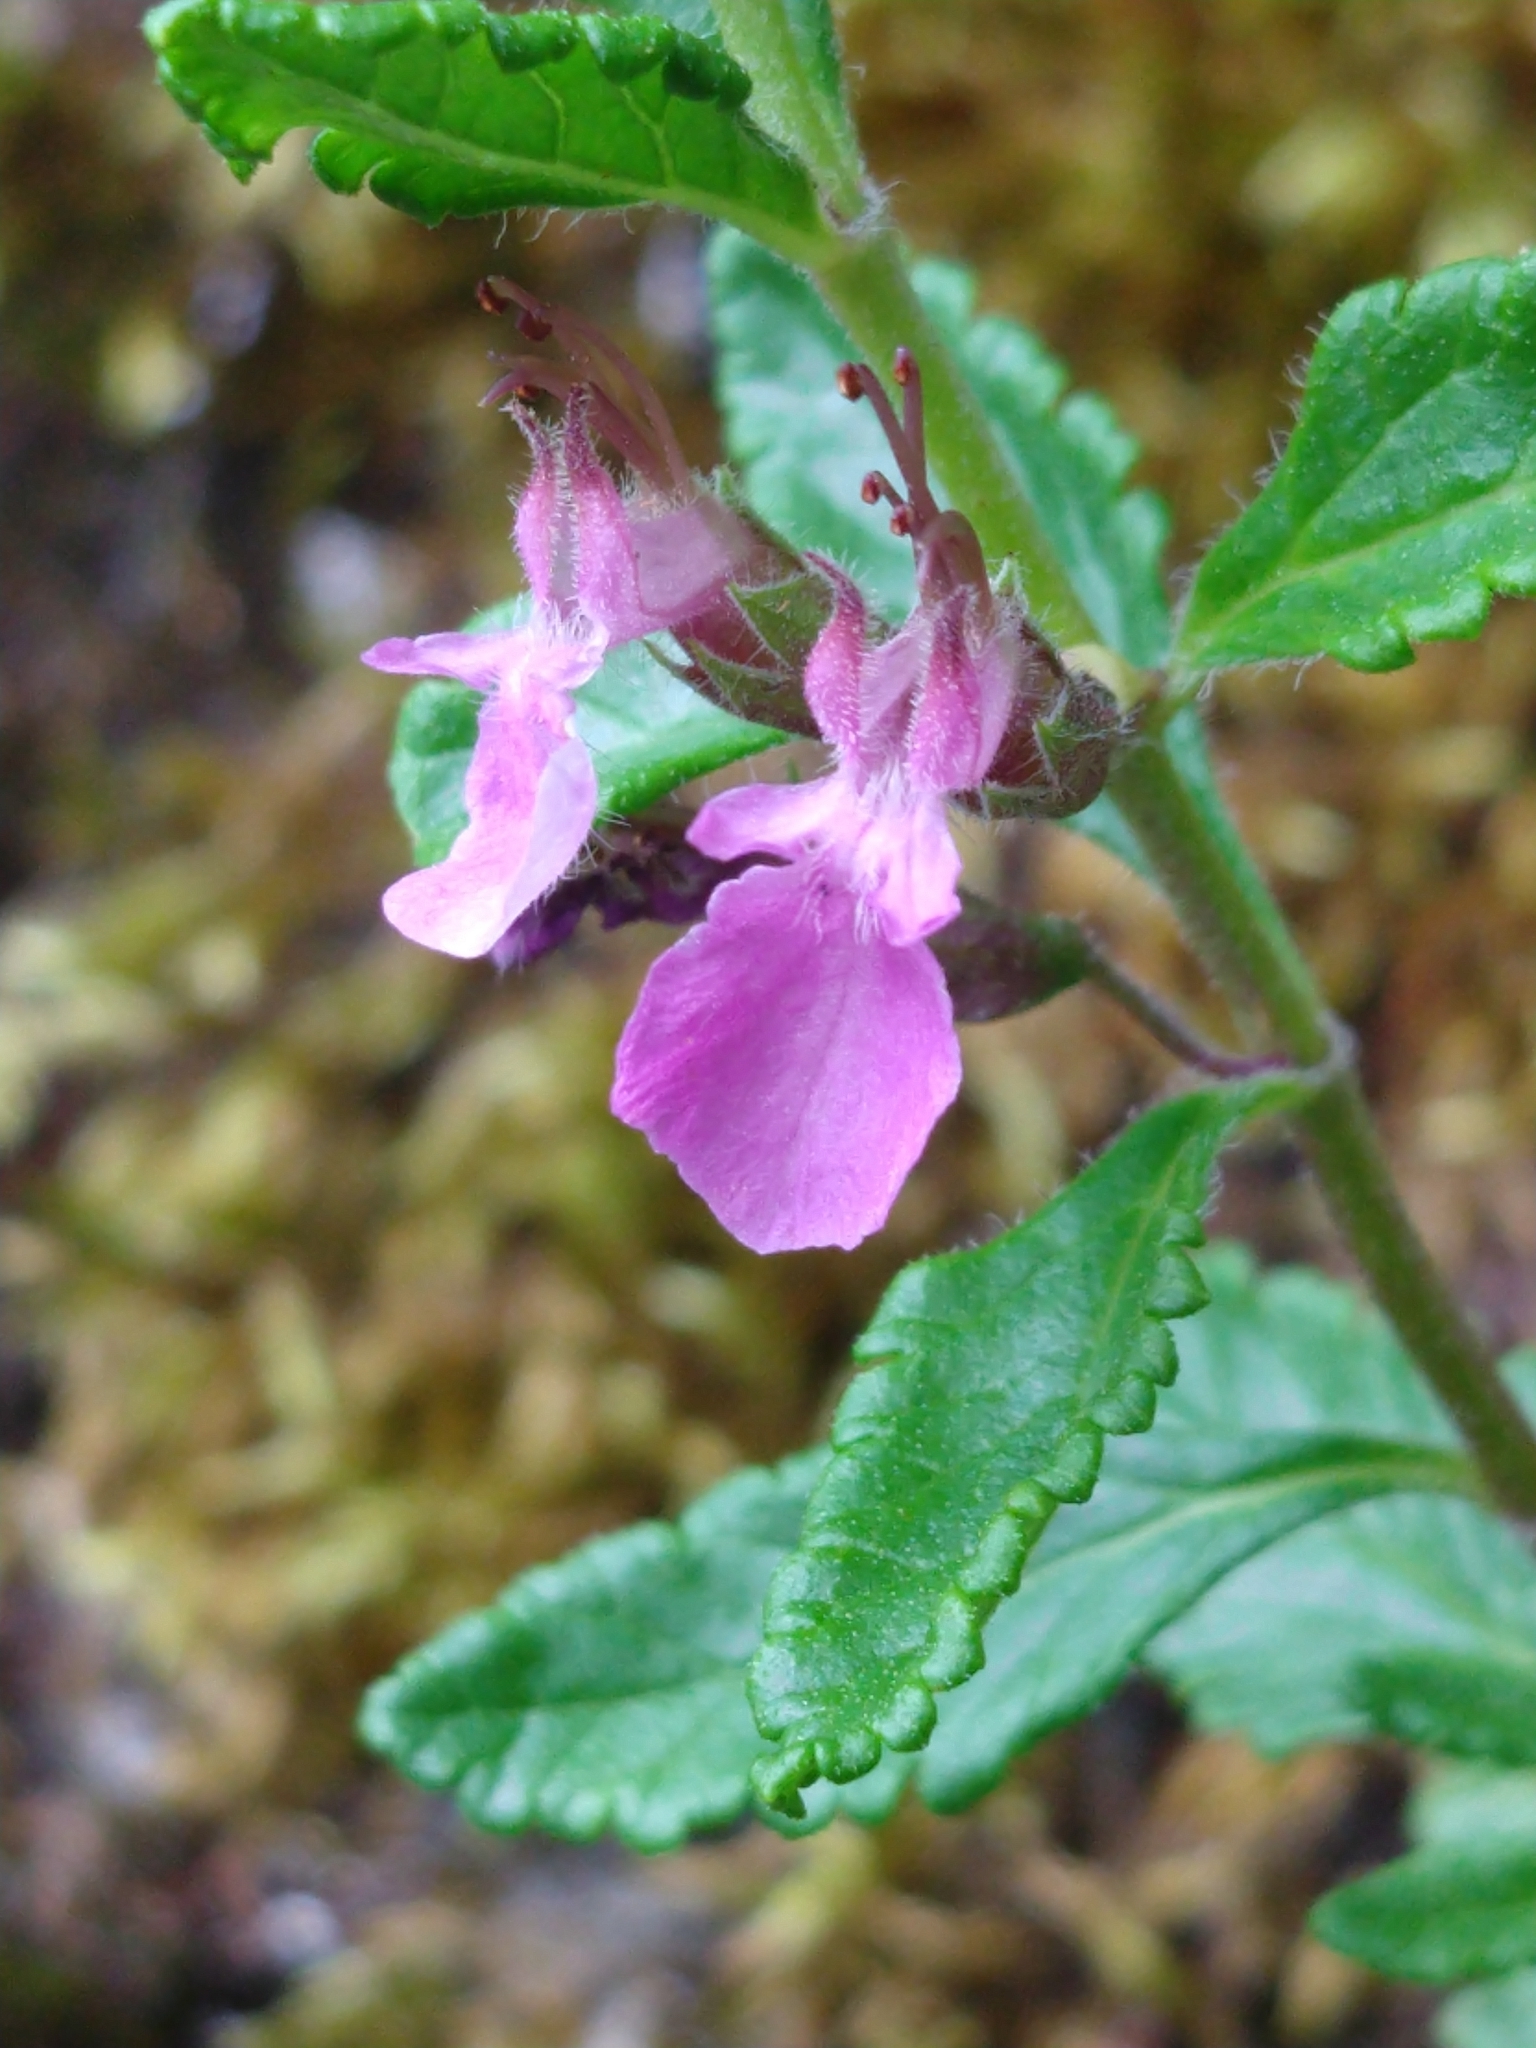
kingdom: Plantae
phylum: Tracheophyta
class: Magnoliopsida
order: Lamiales
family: Lamiaceae
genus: Teucrium
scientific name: Teucrium chamaedrys
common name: Wall germander
